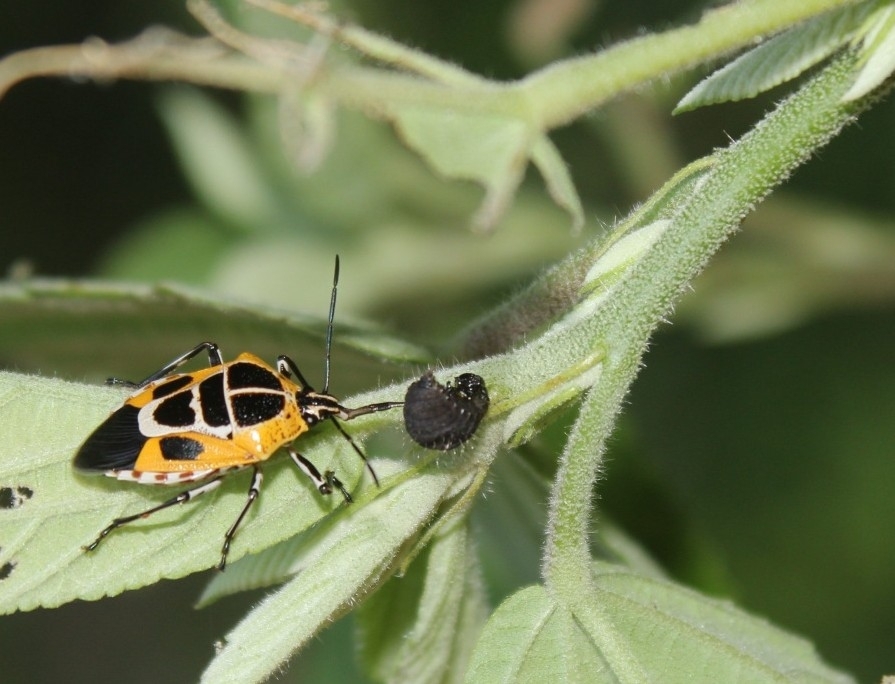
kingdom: Animalia
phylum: Arthropoda
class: Insecta
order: Hemiptera
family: Pentatomidae
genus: Oplomus
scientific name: Oplomus catena
